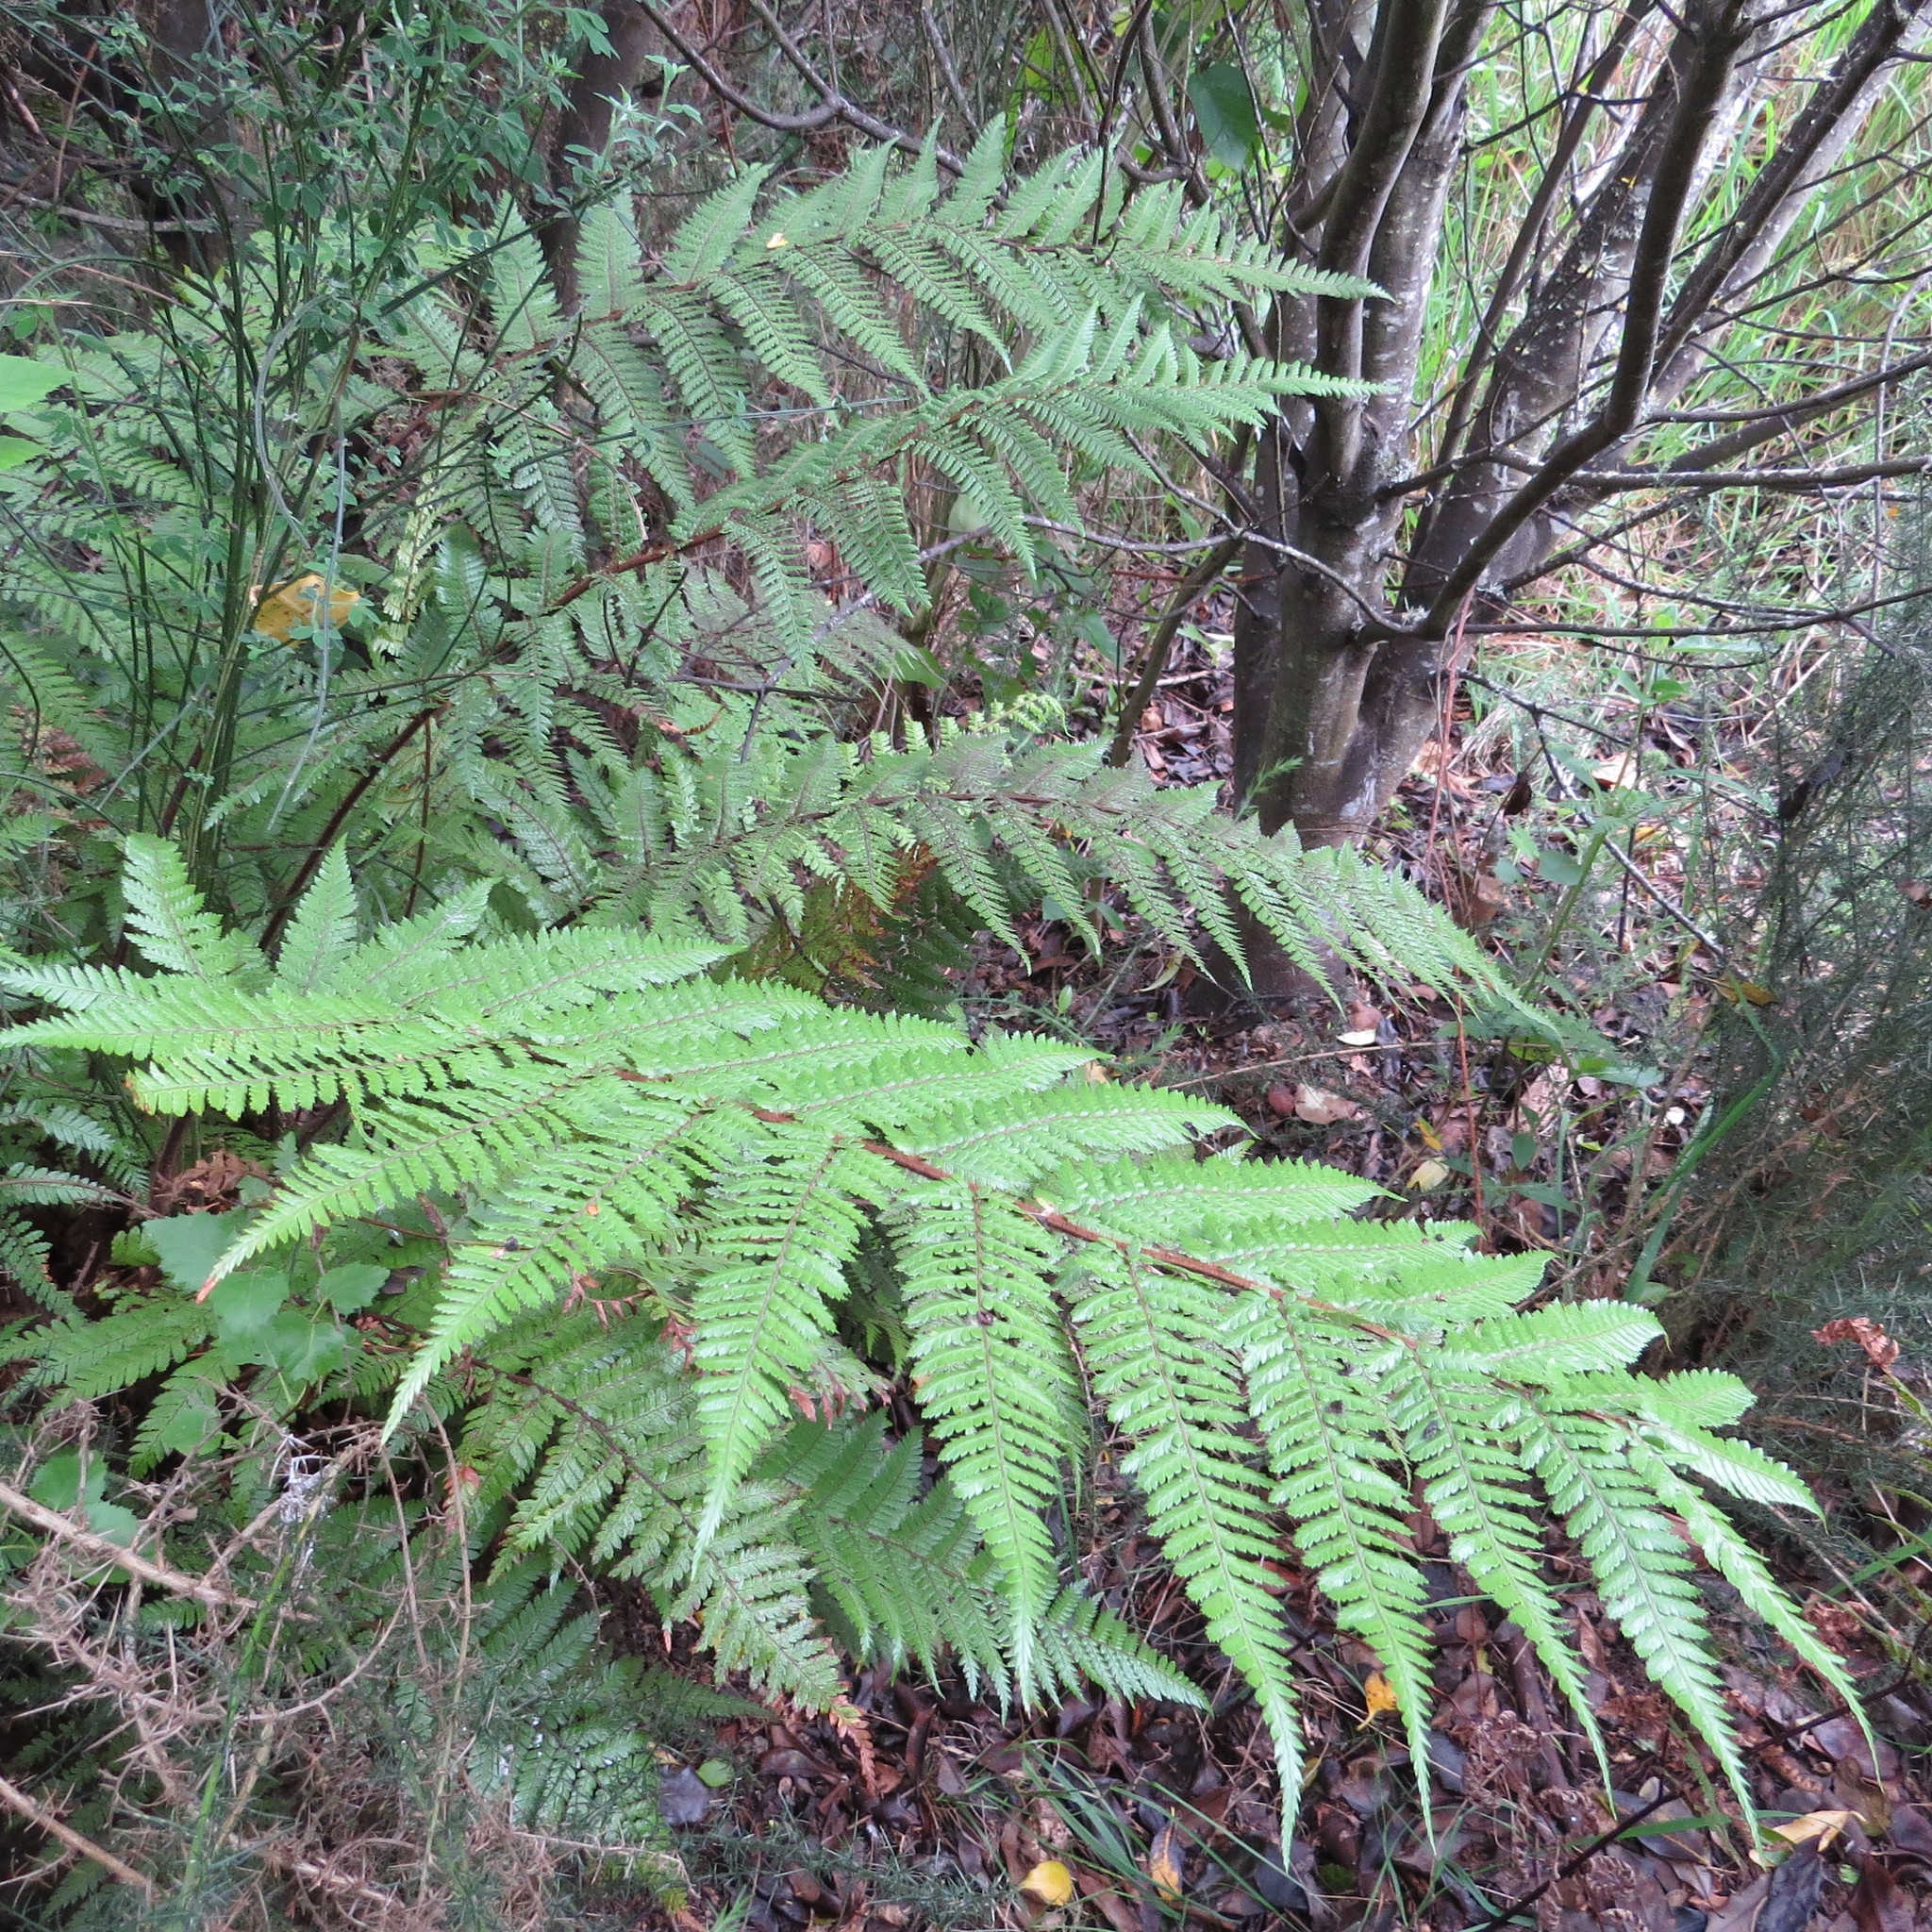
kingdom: Plantae
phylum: Tracheophyta
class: Polypodiopsida
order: Cyatheales
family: Dicksoniaceae
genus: Dicksonia
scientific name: Dicksonia squarrosa
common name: Hard treefern
